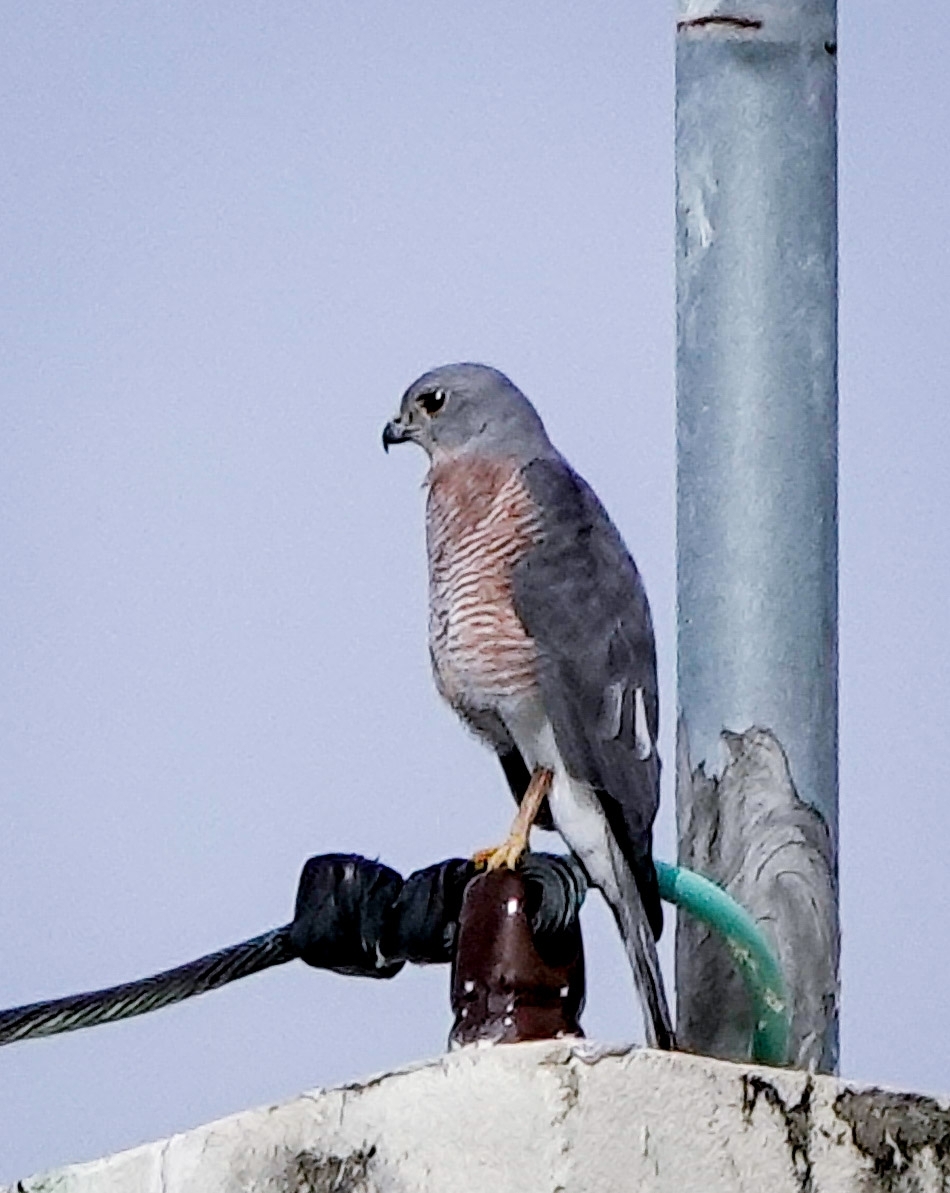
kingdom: Animalia
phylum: Chordata
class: Aves
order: Accipitriformes
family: Accipitridae
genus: Accipiter
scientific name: Accipiter badius
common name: Shikra
